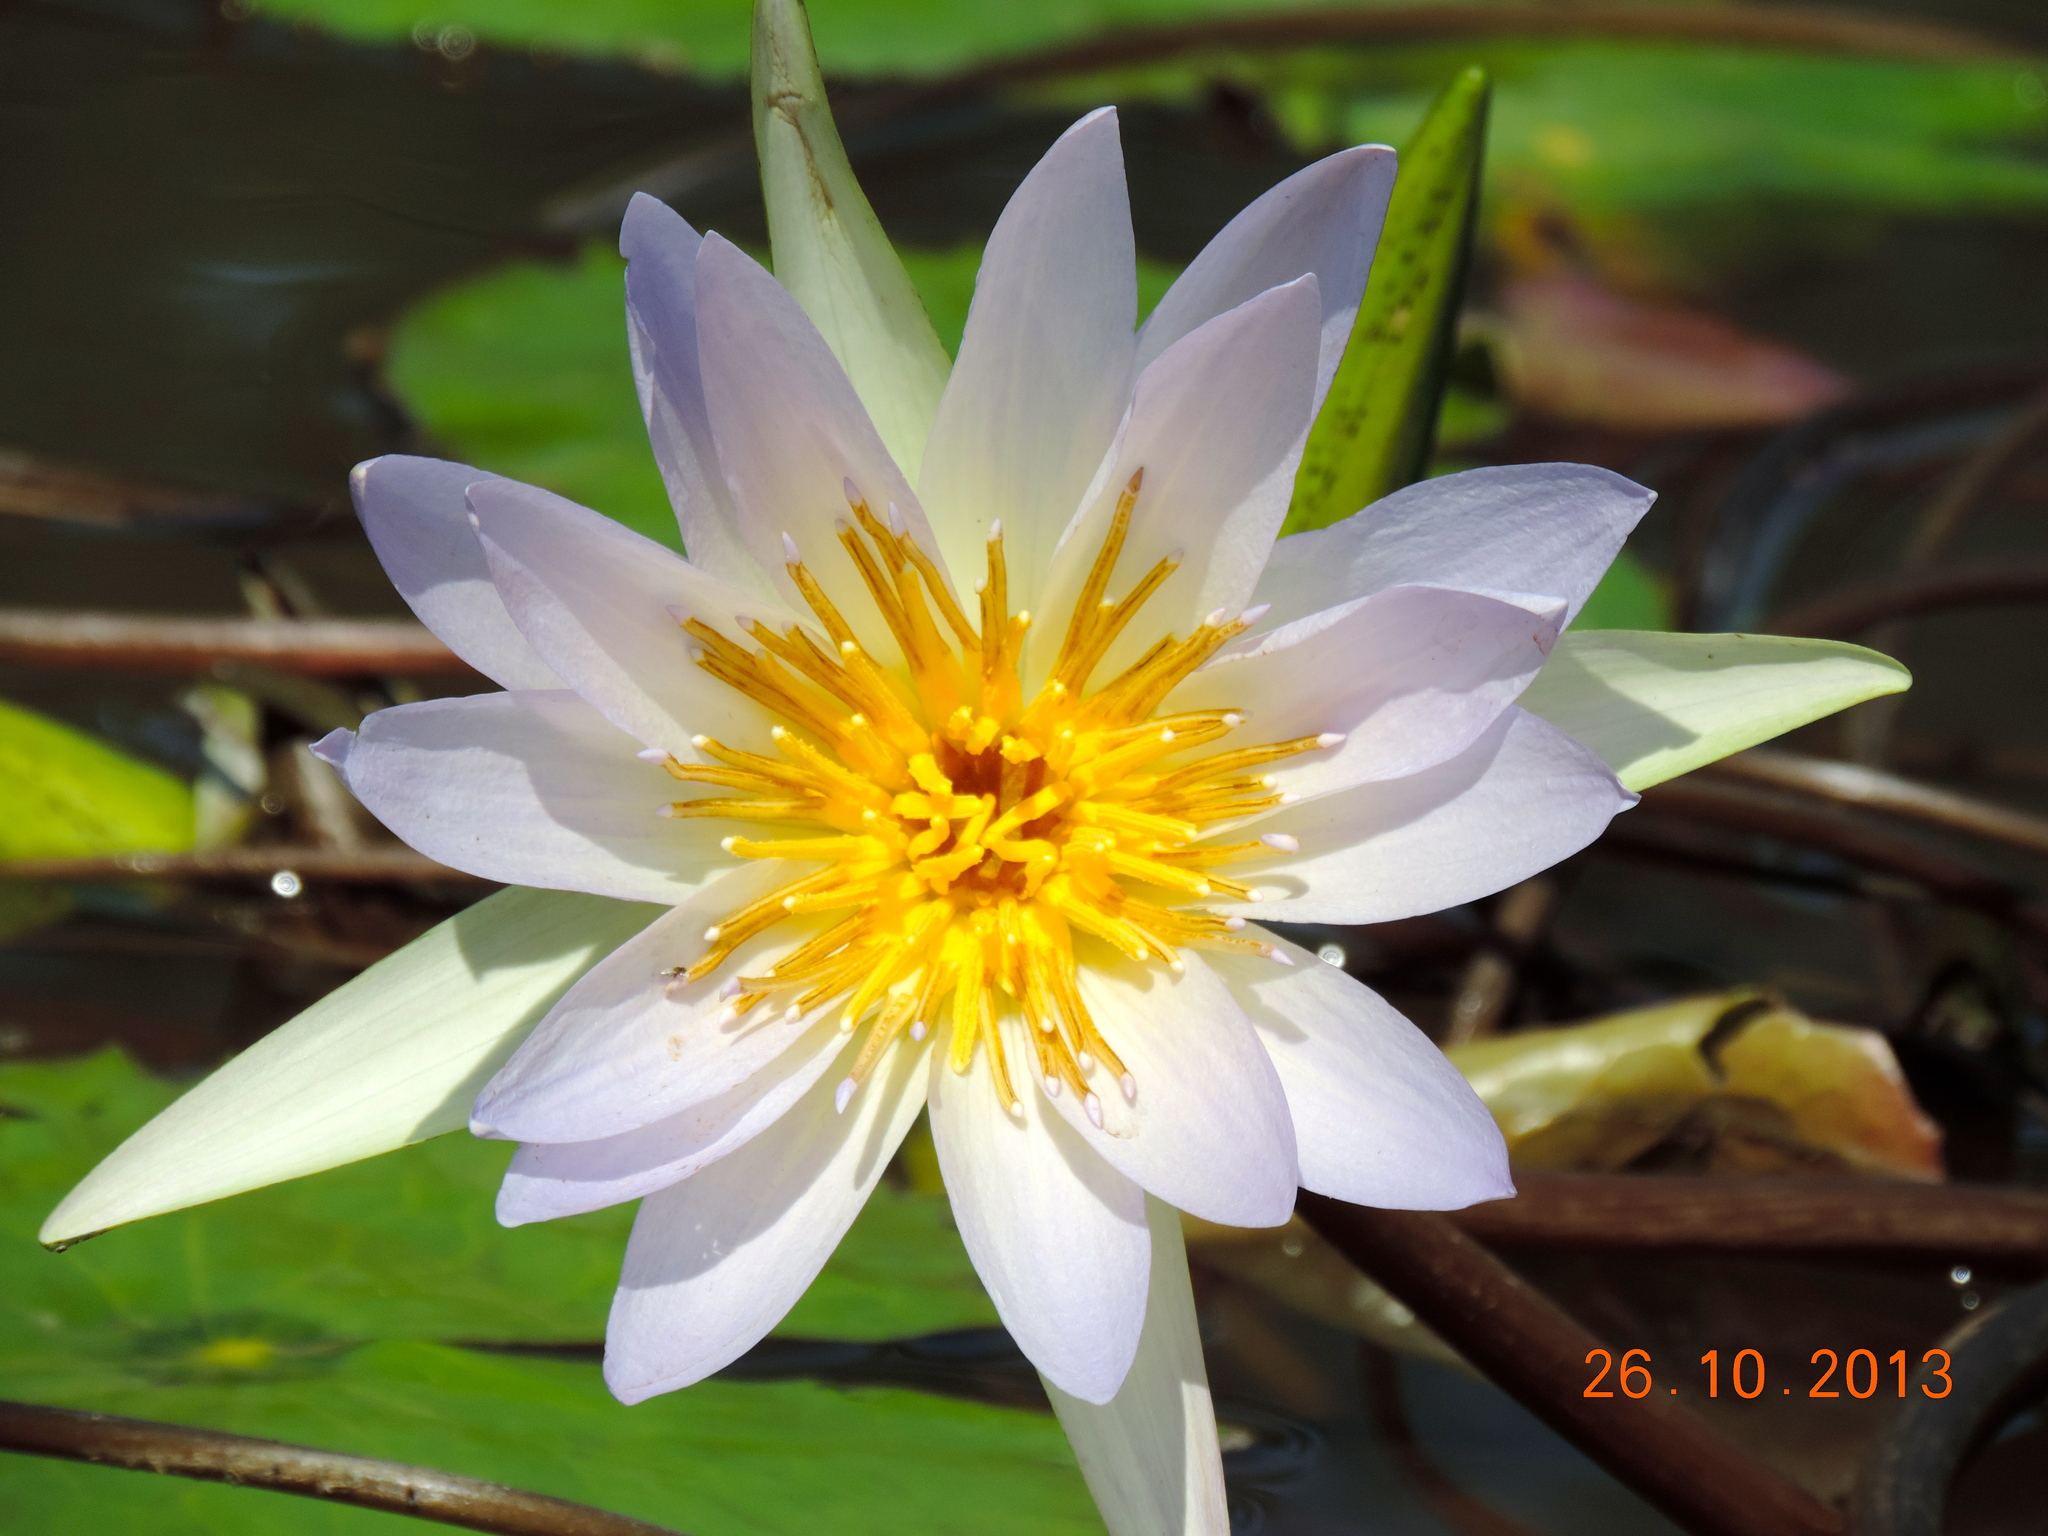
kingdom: Plantae
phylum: Tracheophyta
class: Magnoliopsida
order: Nymphaeales
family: Nymphaeaceae
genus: Nymphaea
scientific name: Nymphaea elegans
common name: Blue water-lily
